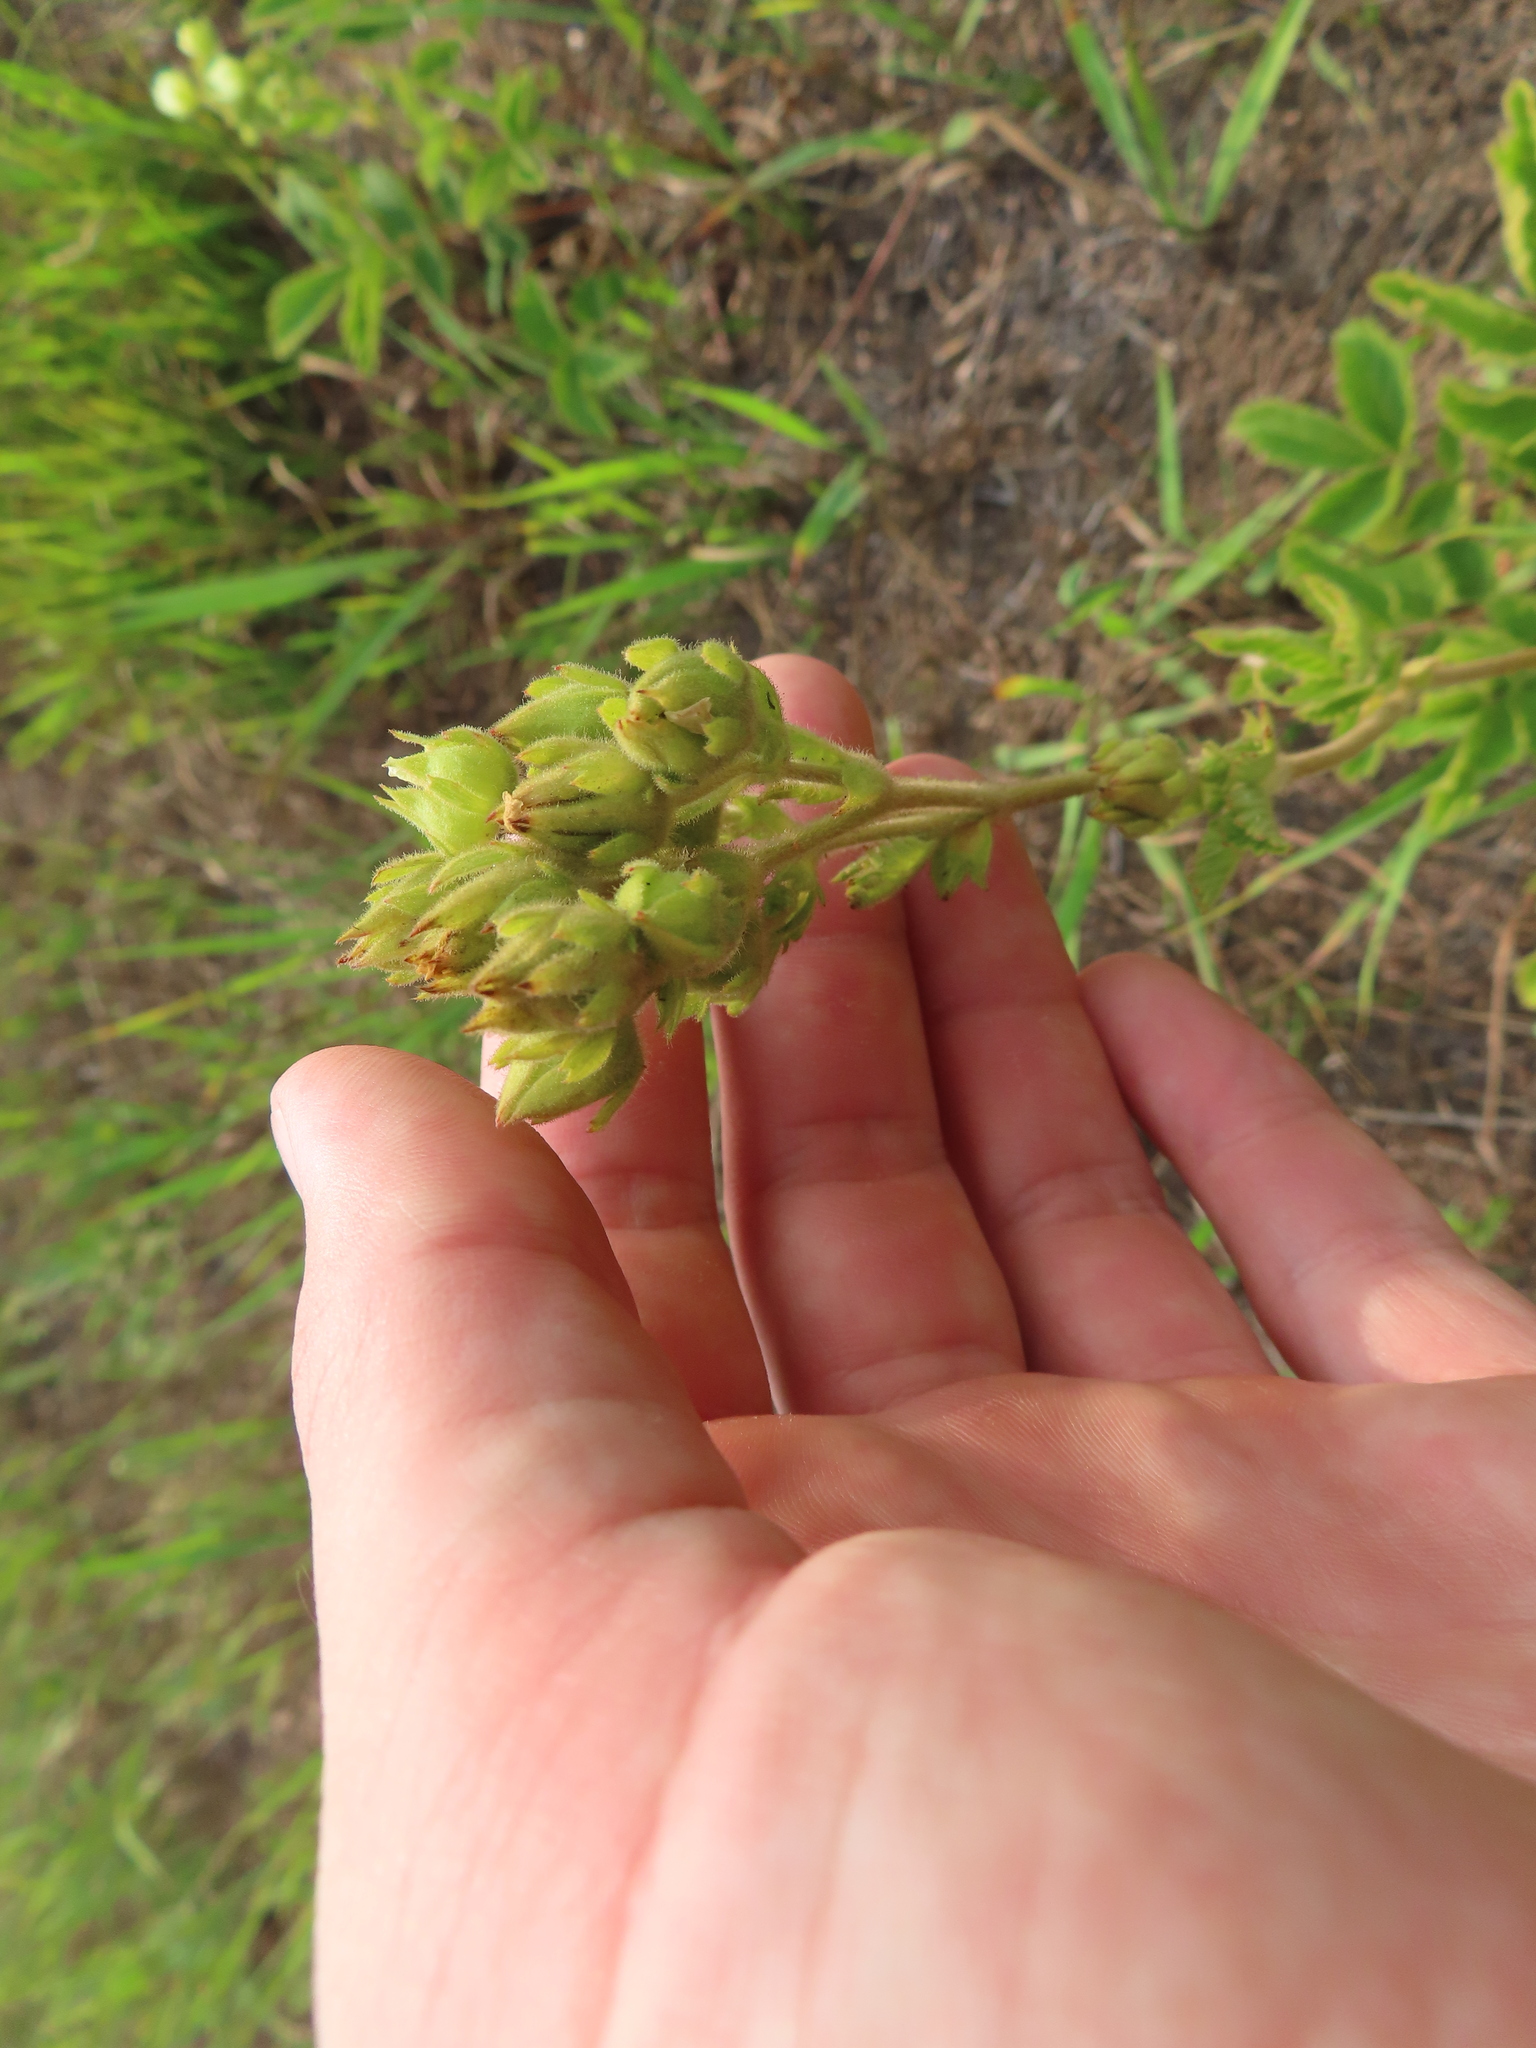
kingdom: Plantae
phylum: Tracheophyta
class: Magnoliopsida
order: Rosales
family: Rosaceae
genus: Drymocallis
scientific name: Drymocallis arguta
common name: Tall cinquefoil
